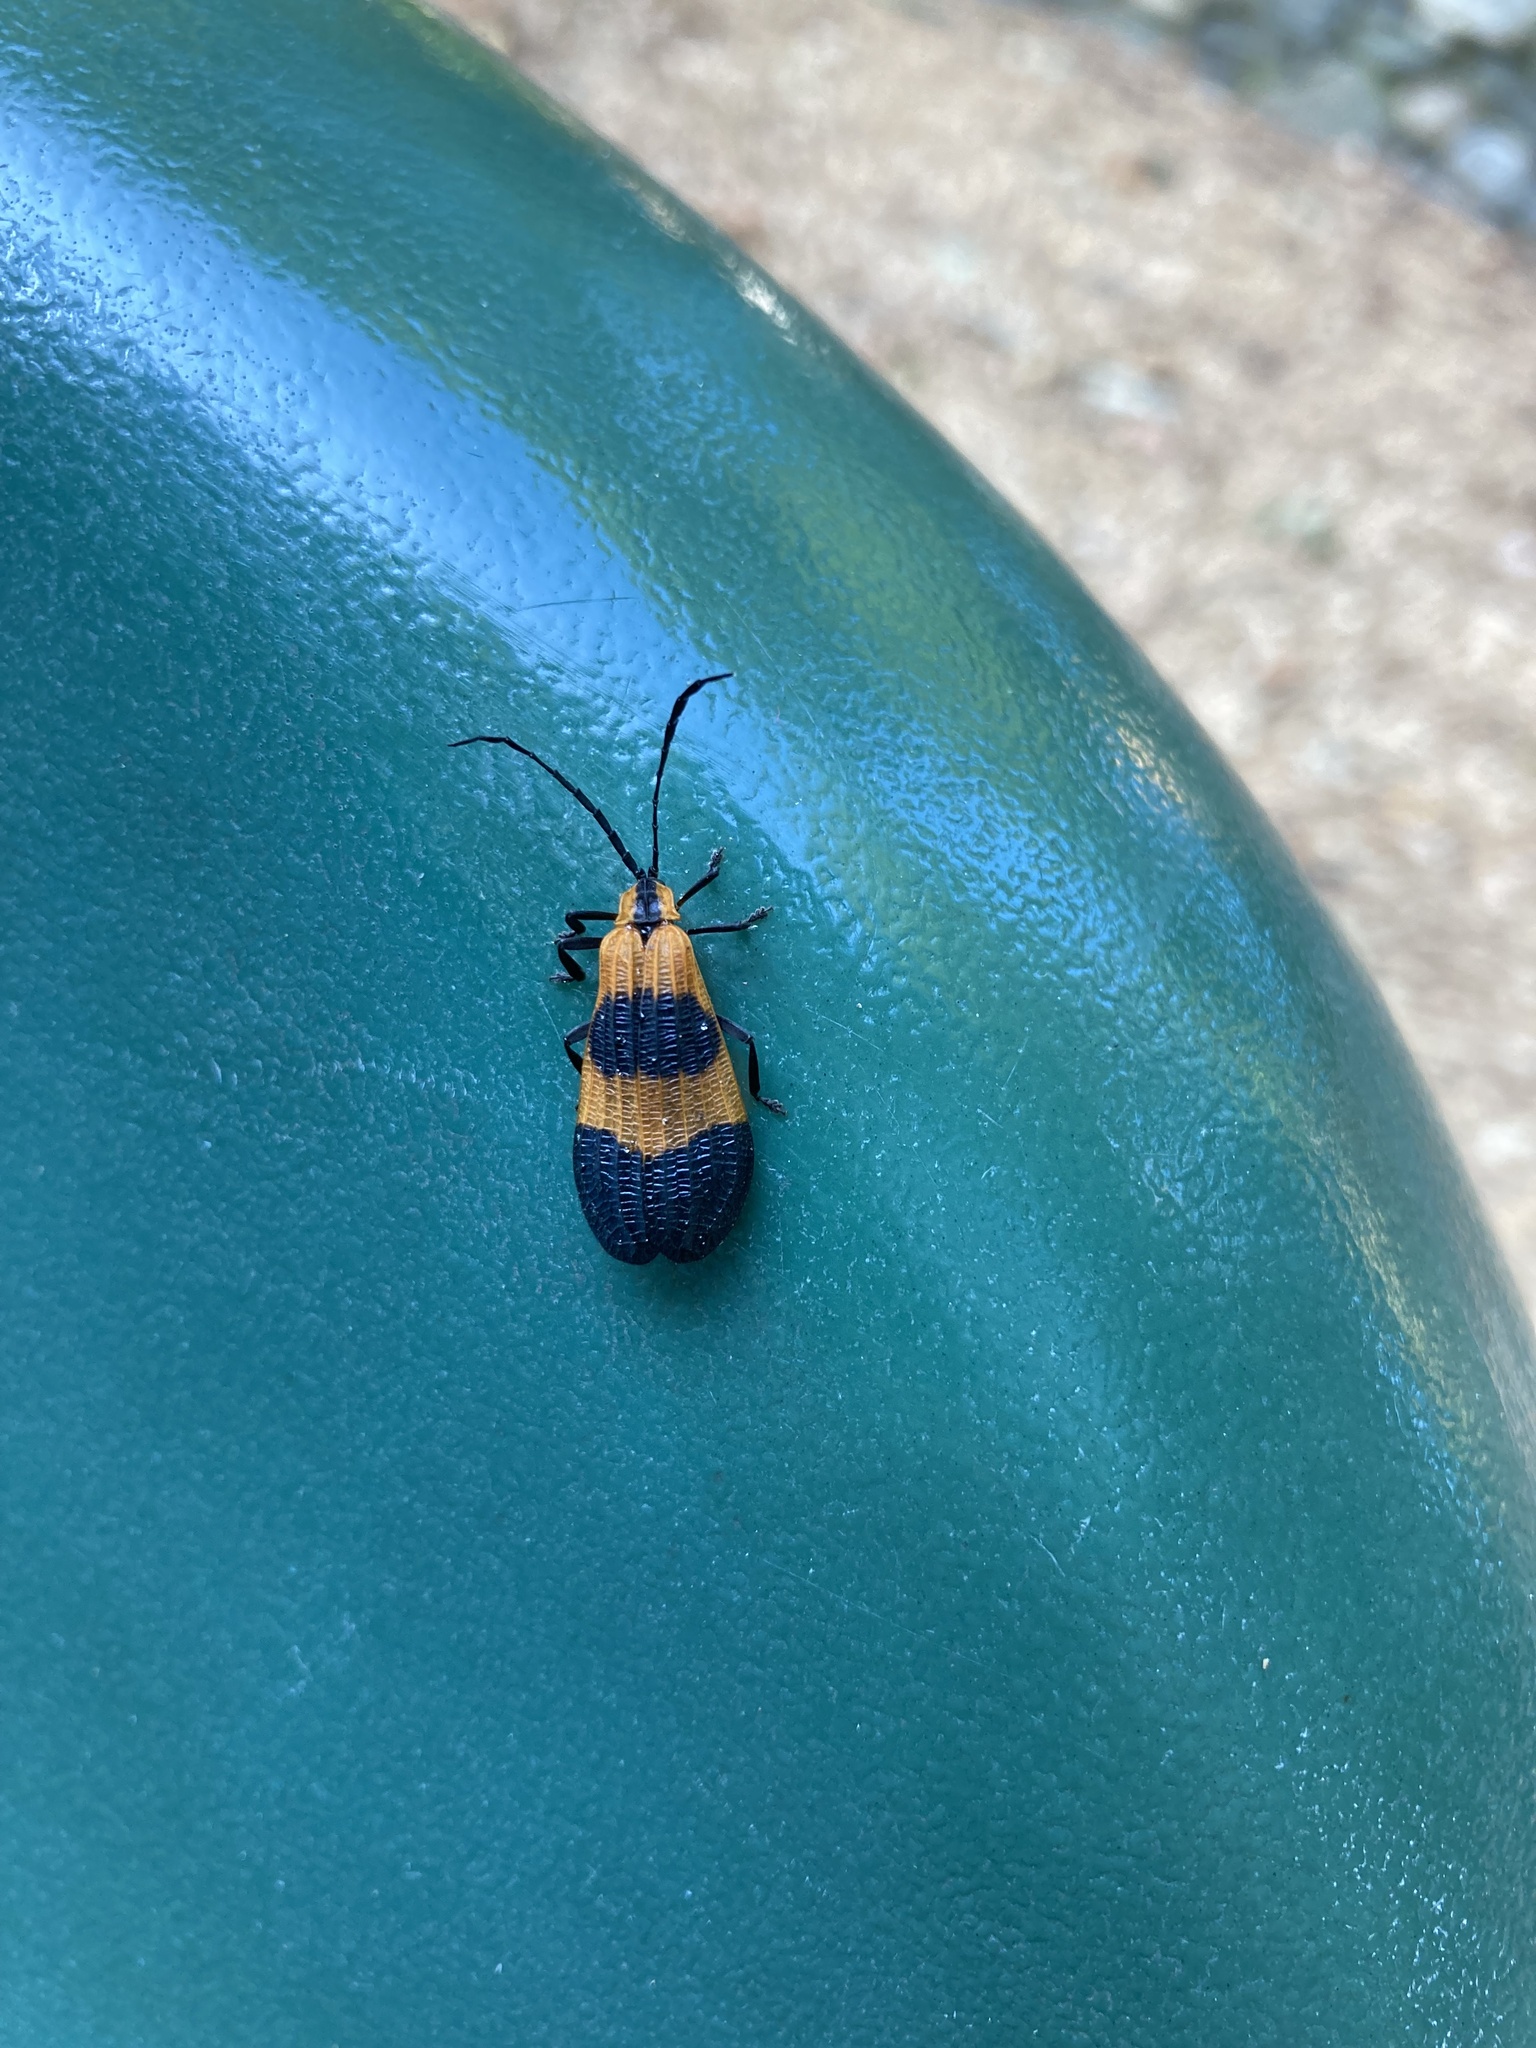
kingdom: Animalia
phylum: Arthropoda
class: Insecta
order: Coleoptera
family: Lycidae
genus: Calopteron
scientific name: Calopteron terminale
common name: End band net-winged beetle
